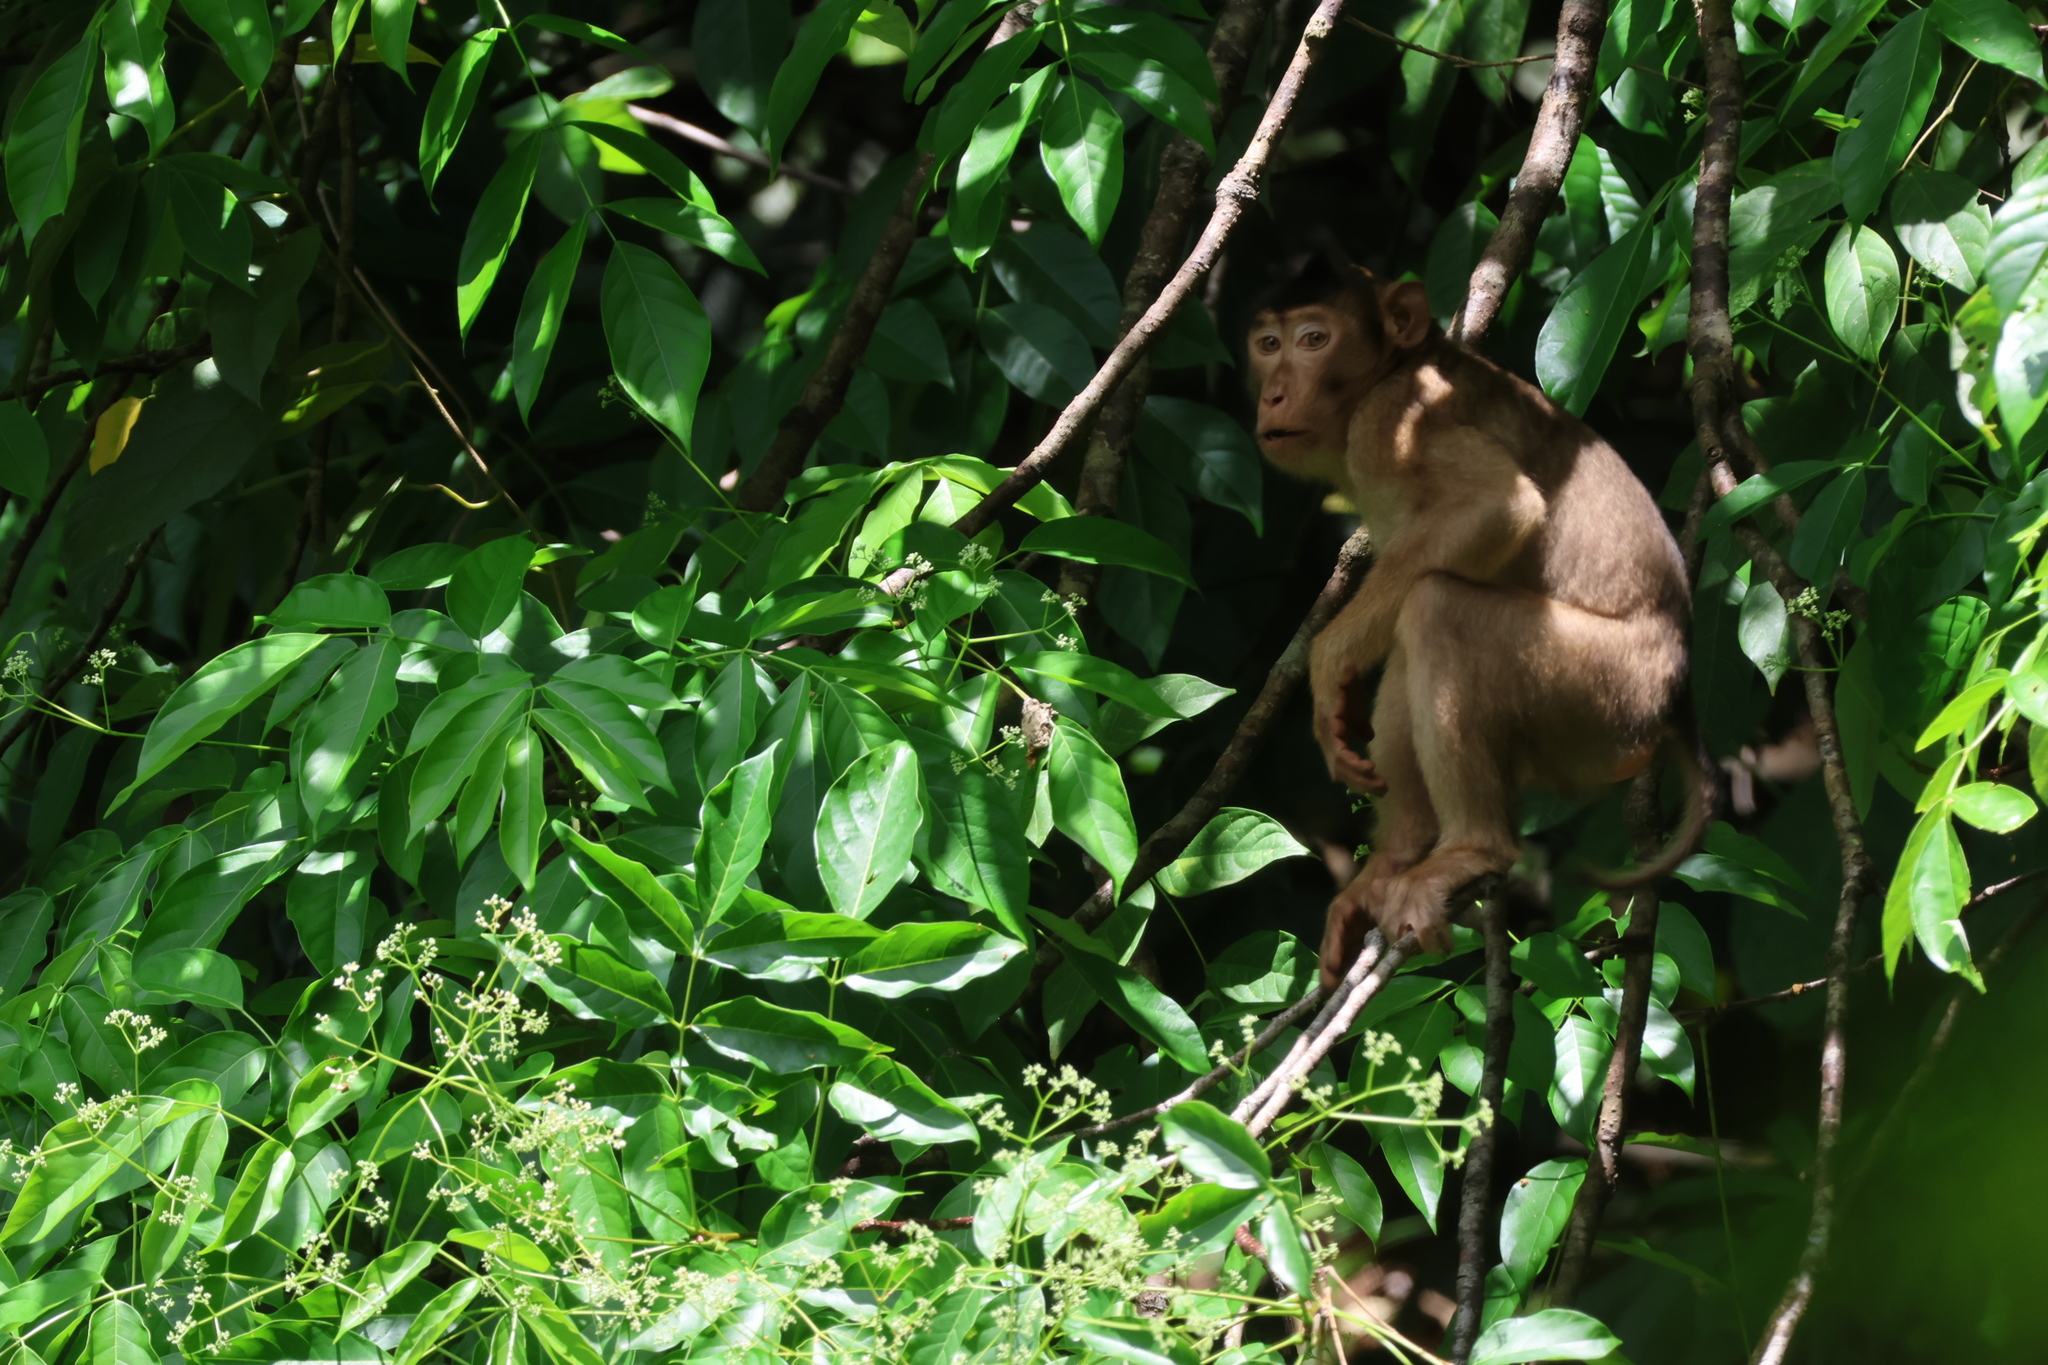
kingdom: Animalia
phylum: Chordata
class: Mammalia
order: Primates
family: Cercopithecidae
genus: Macaca
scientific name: Macaca nemestrina
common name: Southern pig-tailed macaque
